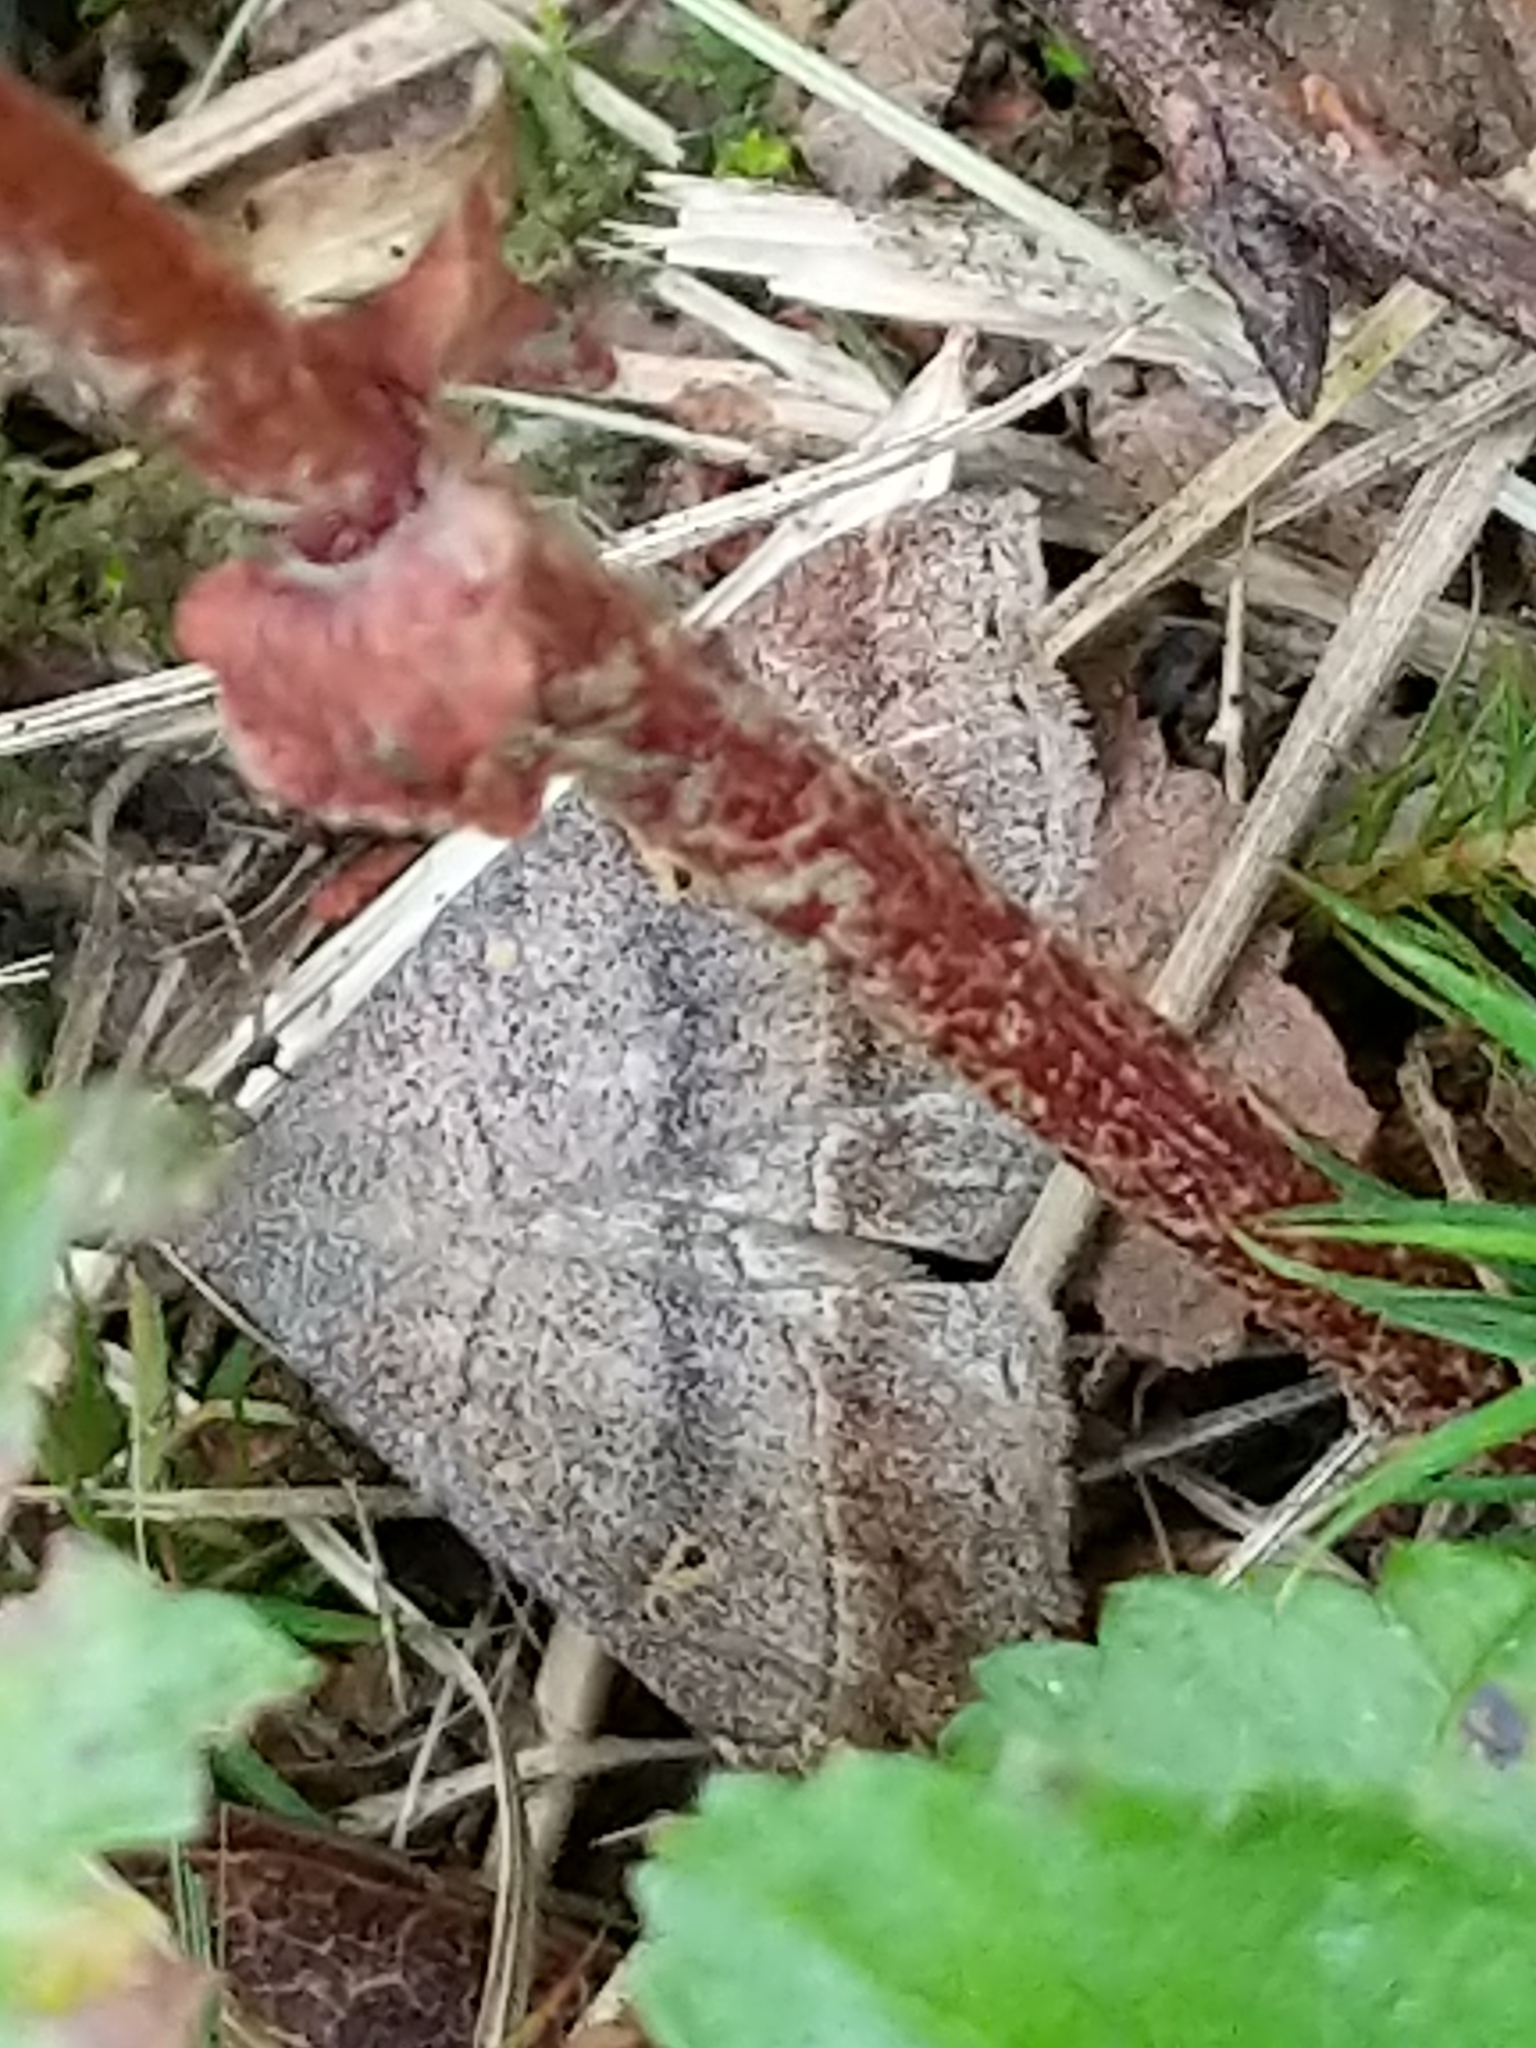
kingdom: Animalia
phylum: Arthropoda
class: Insecta
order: Lepidoptera
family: Erebidae
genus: Renia
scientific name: Renia flavipunctalis
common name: Yellow-spotted renia moth
